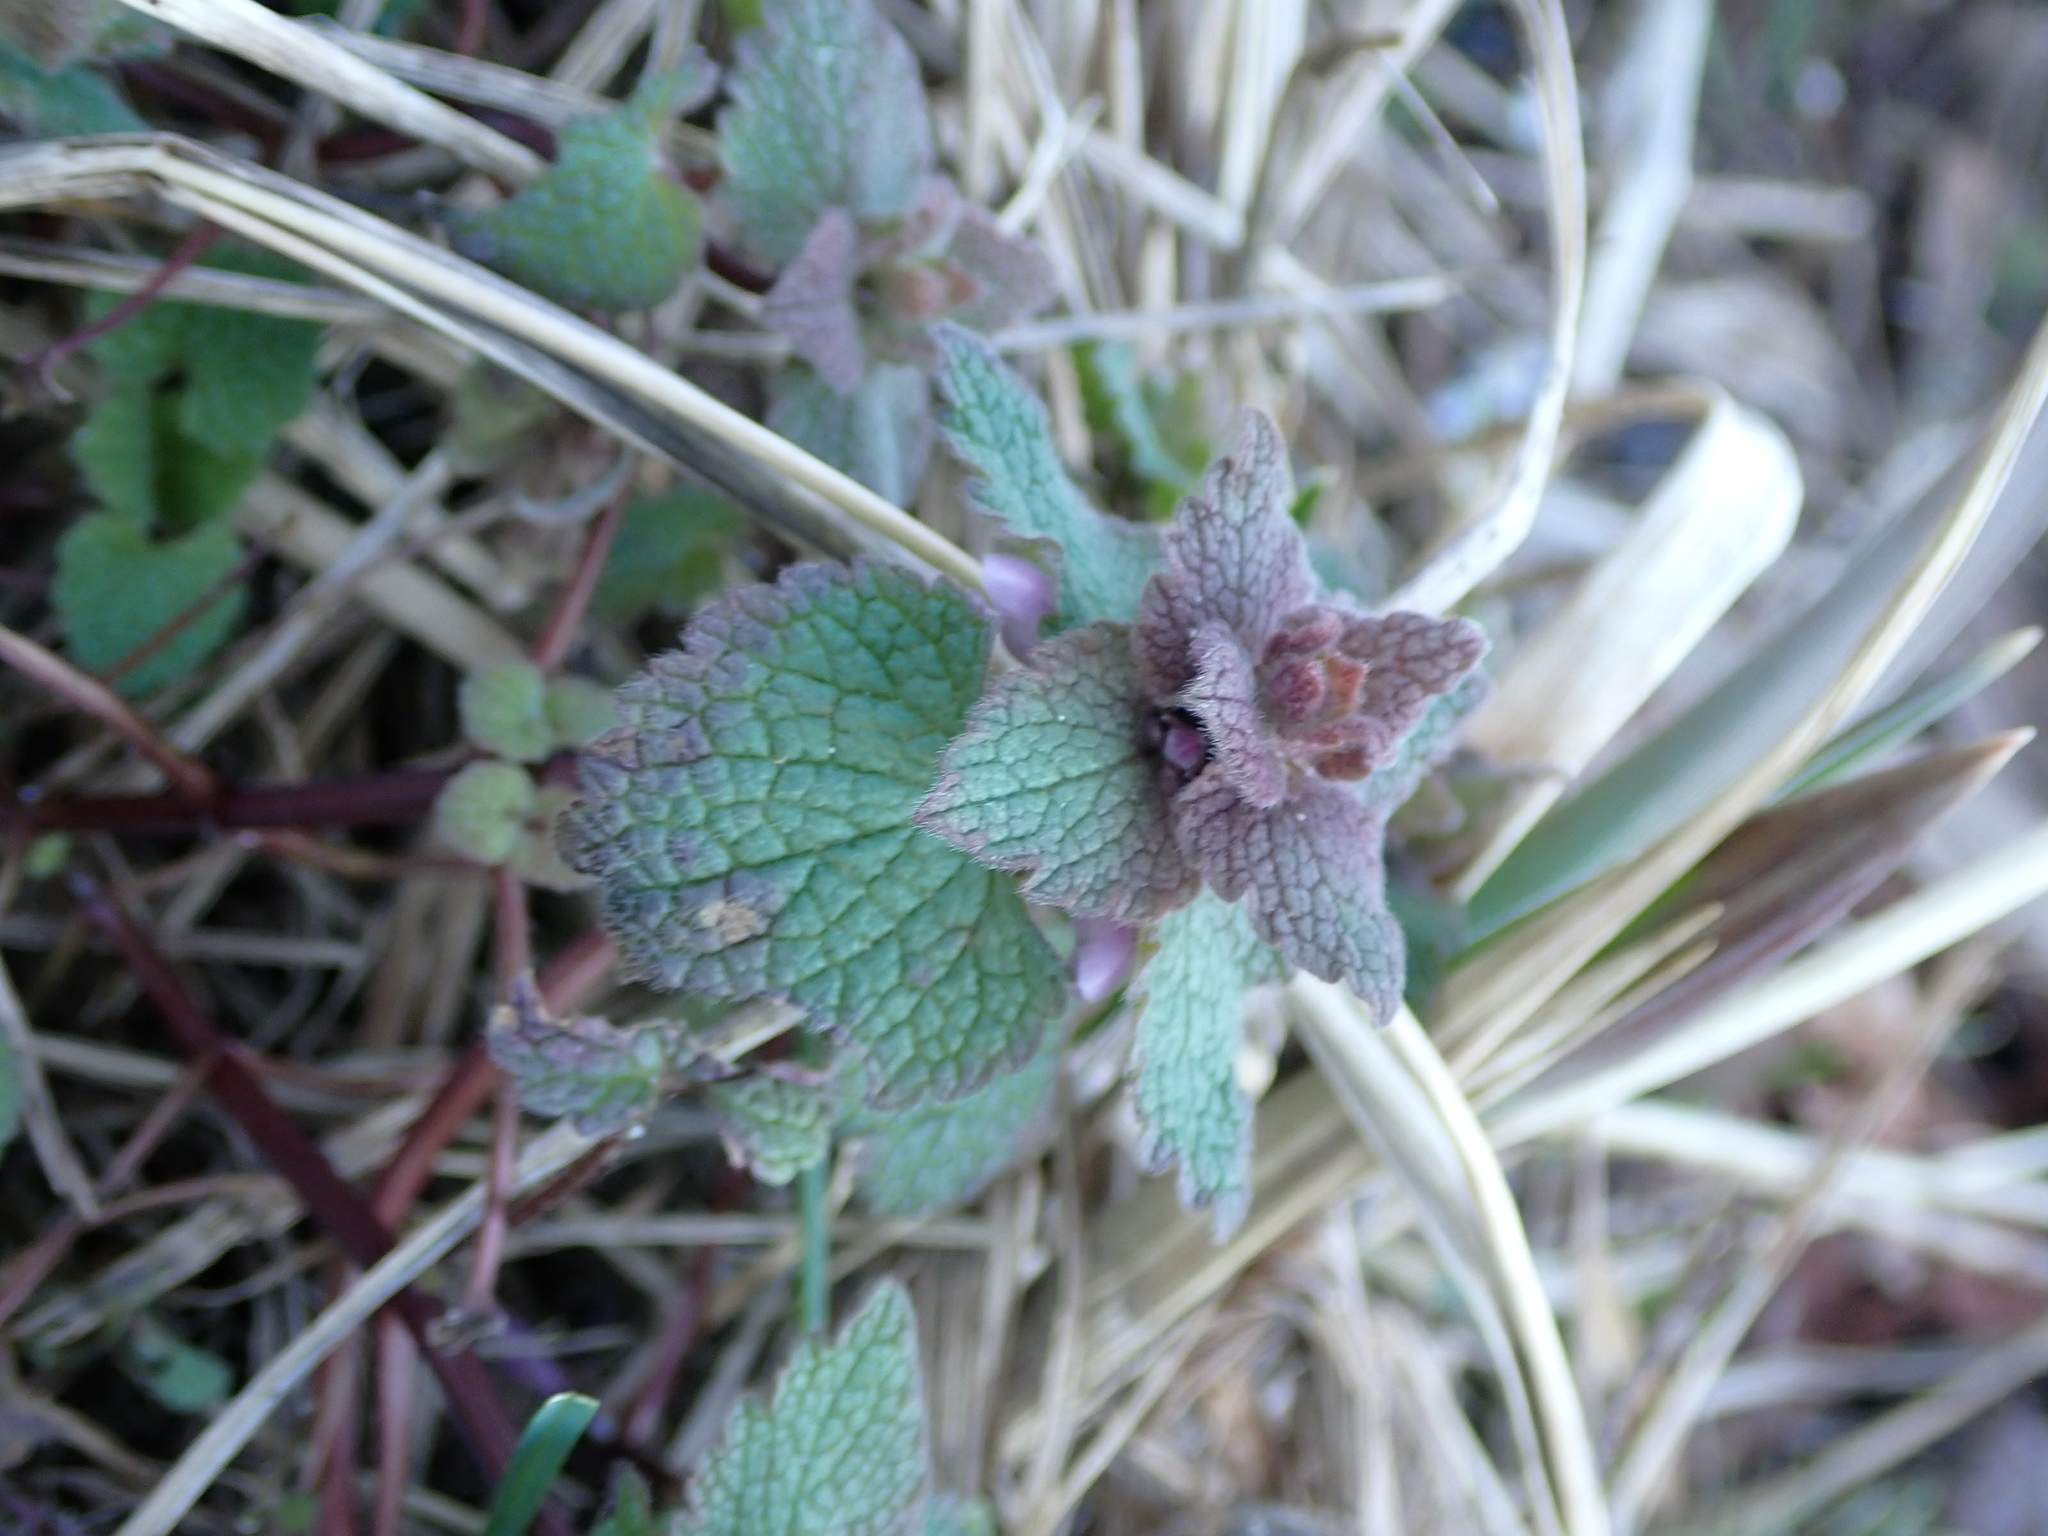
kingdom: Plantae
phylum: Tracheophyta
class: Magnoliopsida
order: Lamiales
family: Lamiaceae
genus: Lamium
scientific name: Lamium purpureum
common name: Red dead-nettle
